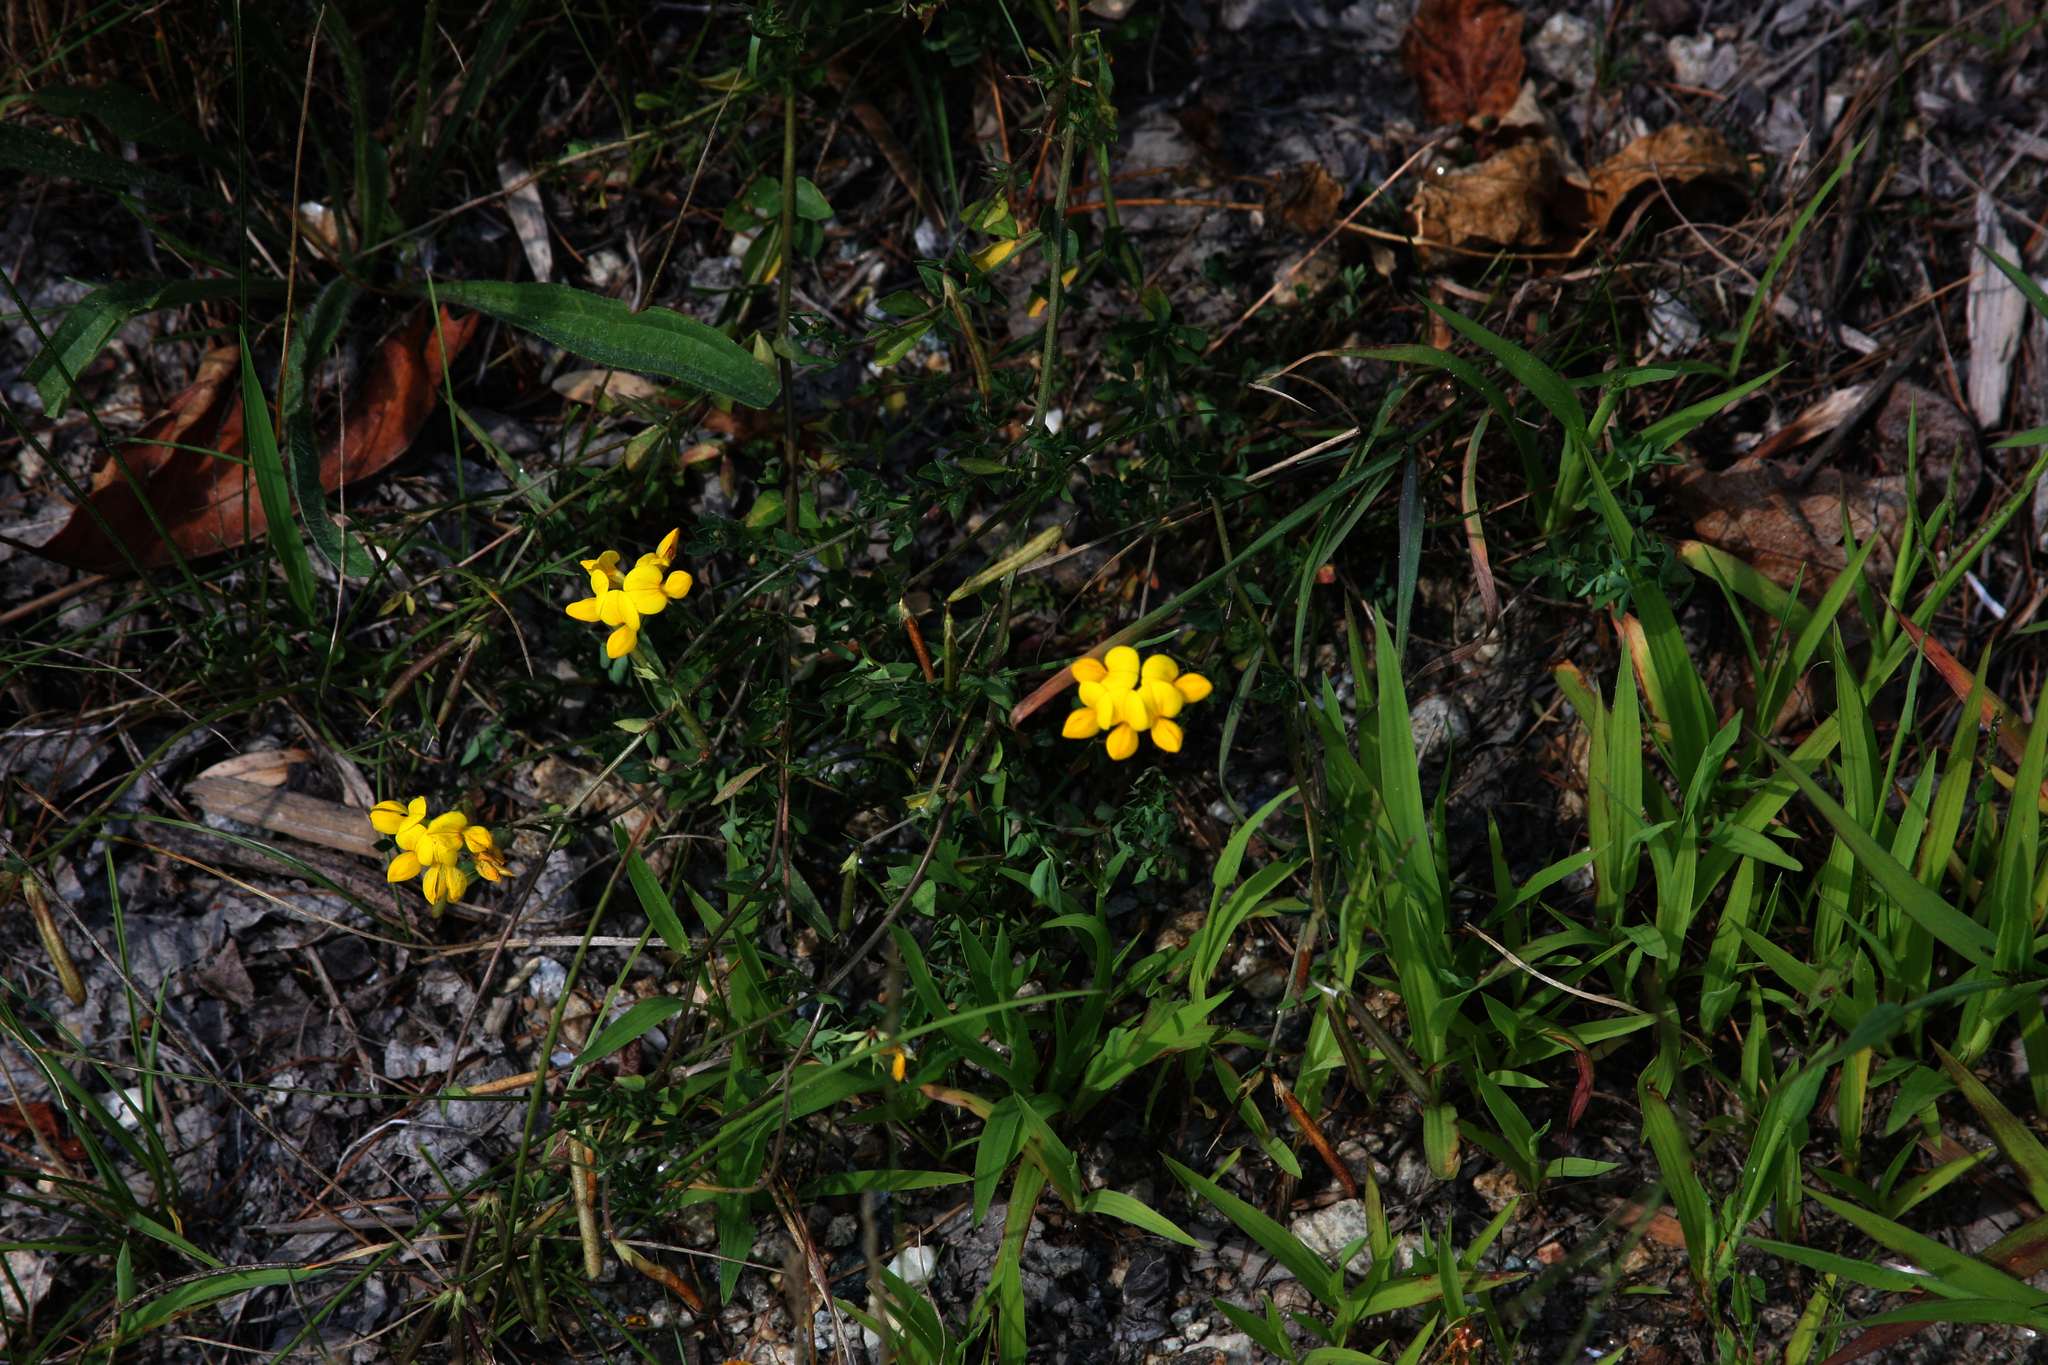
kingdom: Plantae
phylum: Tracheophyta
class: Magnoliopsida
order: Fabales
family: Fabaceae
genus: Lotus
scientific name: Lotus corniculatus
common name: Common bird's-foot-trefoil
